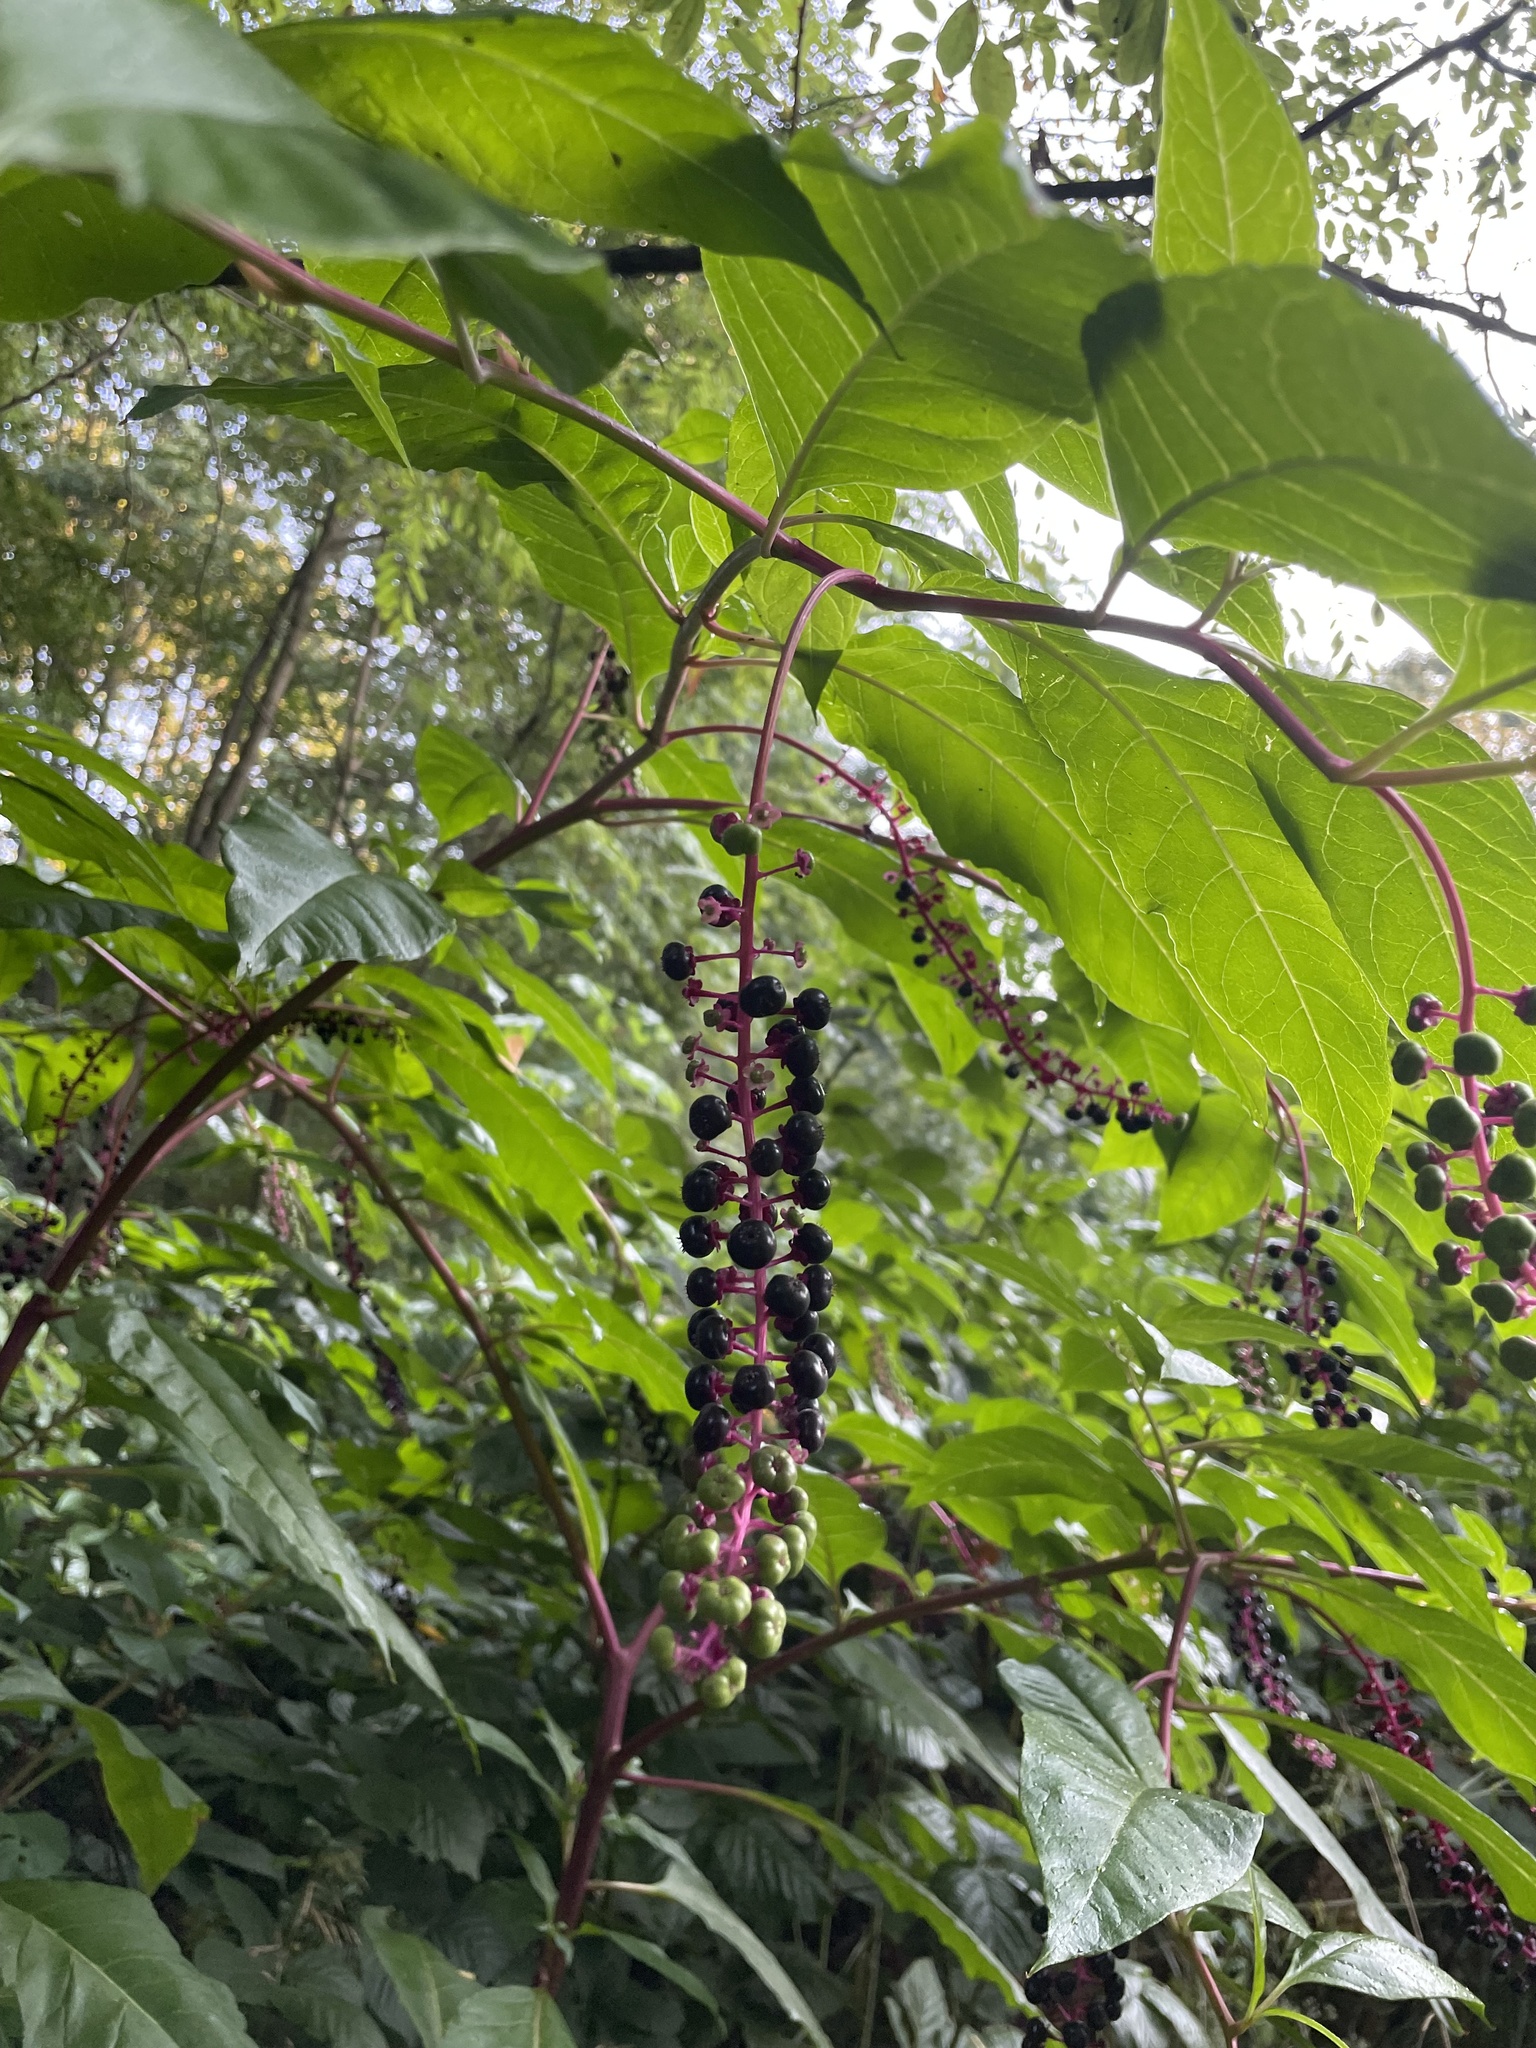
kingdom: Plantae
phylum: Tracheophyta
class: Magnoliopsida
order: Caryophyllales
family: Phytolaccaceae
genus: Phytolacca
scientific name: Phytolacca americana
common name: American pokeweed
